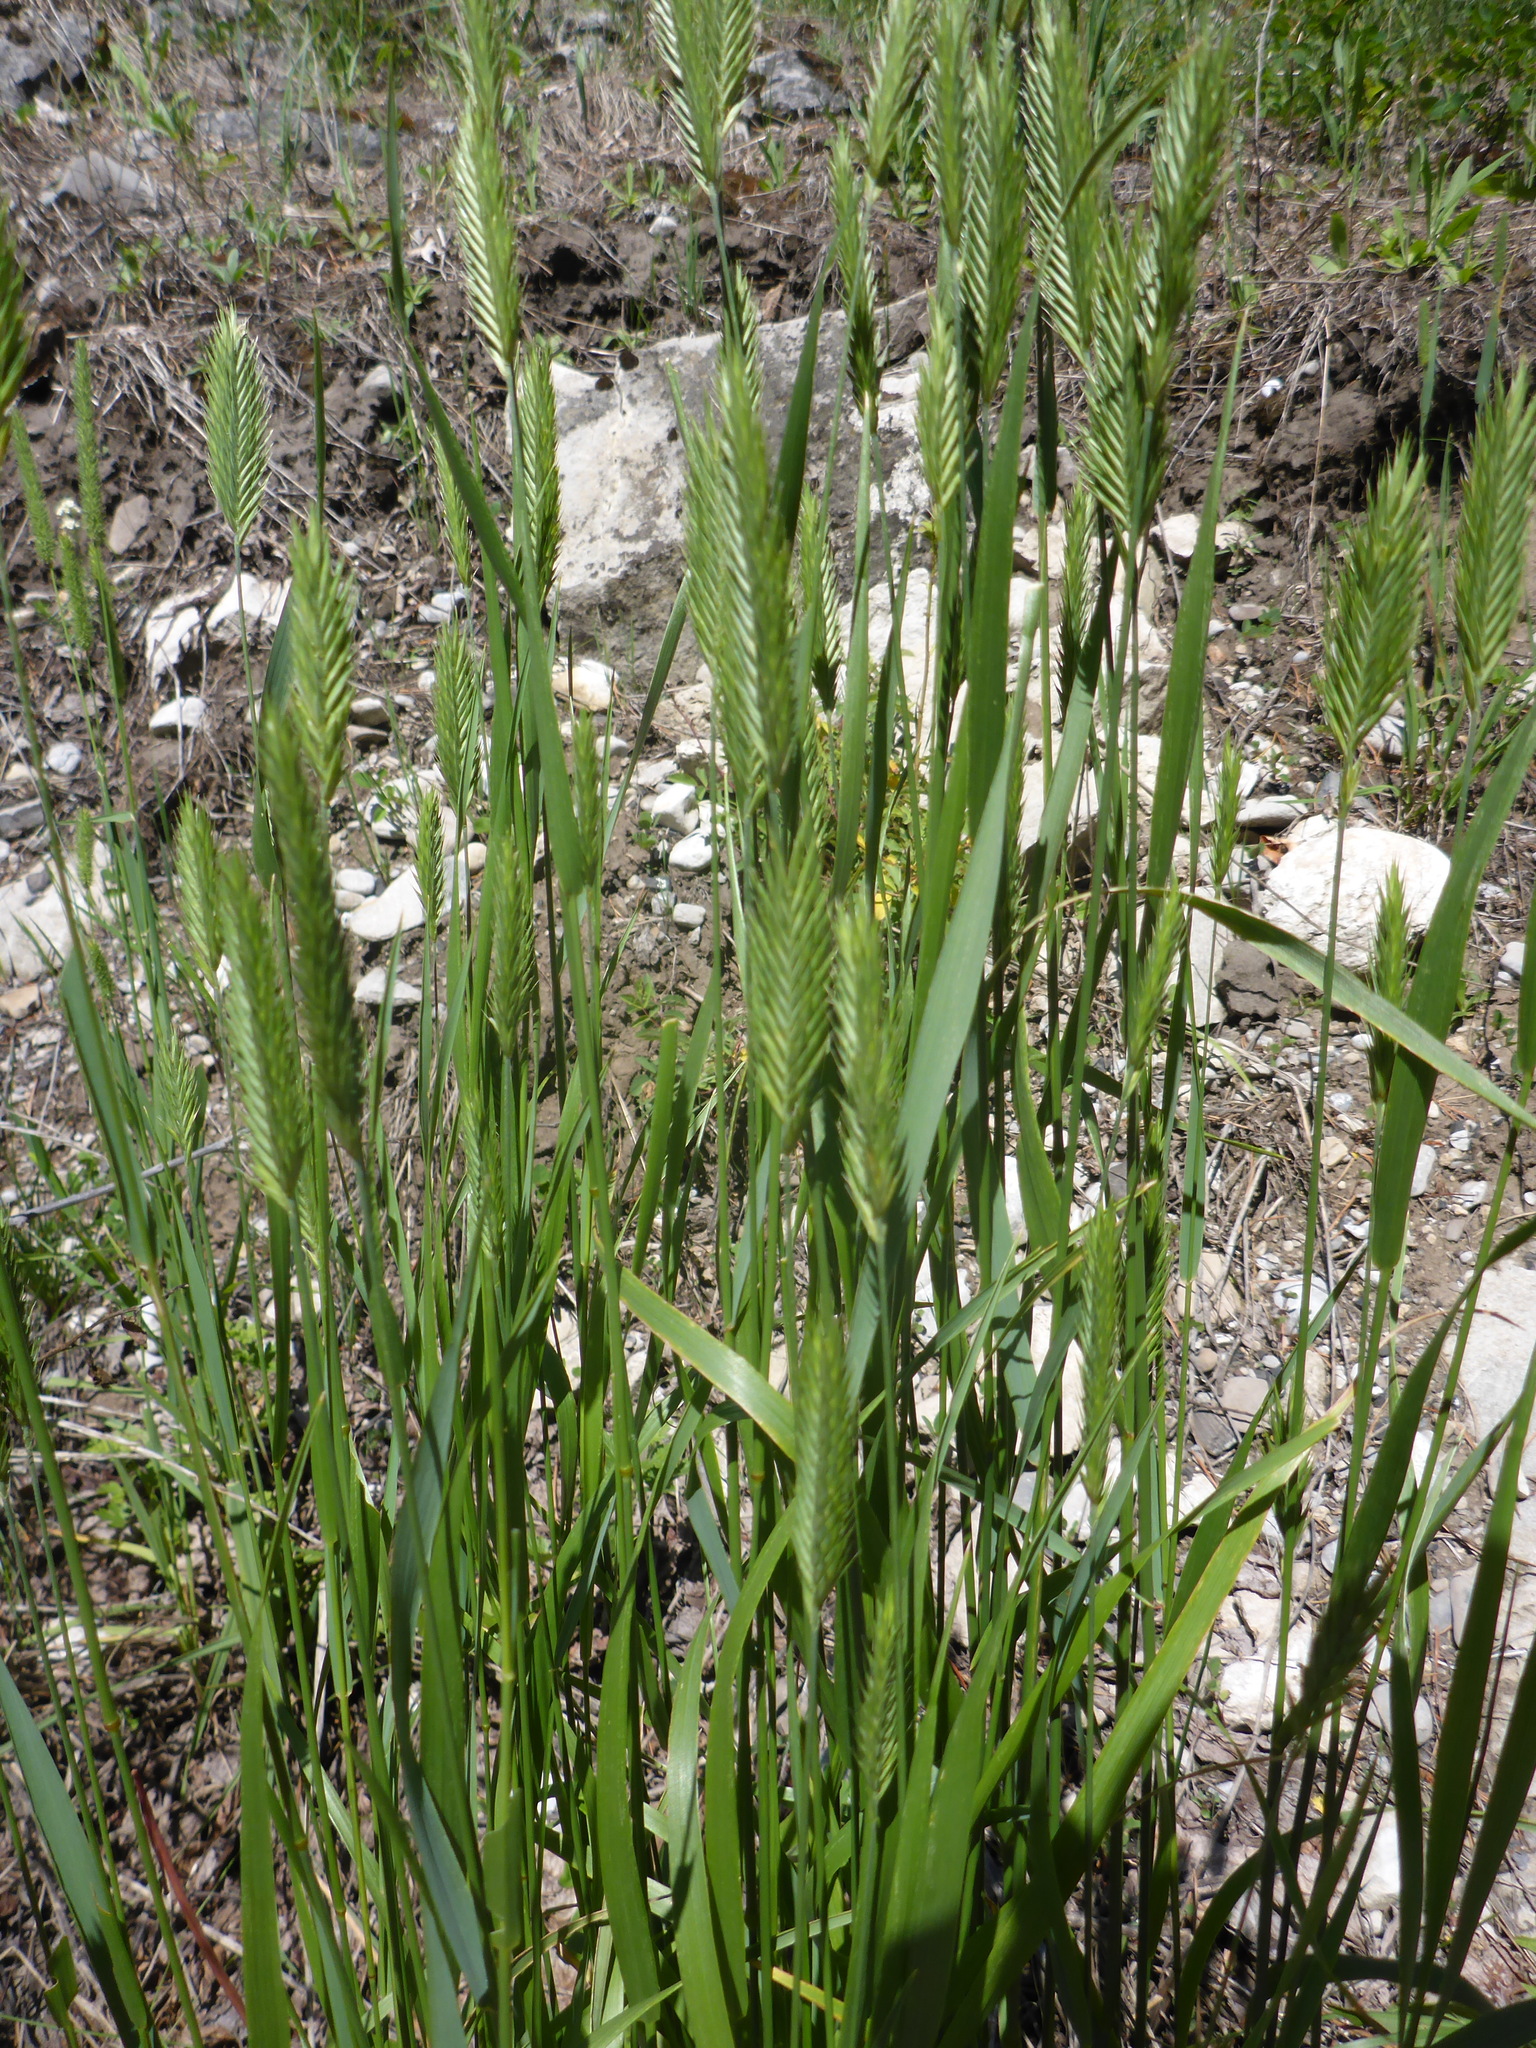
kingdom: Plantae
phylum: Tracheophyta
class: Liliopsida
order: Poales
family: Poaceae
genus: Agropyron
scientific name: Agropyron cristatum
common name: Crested wheatgrass
